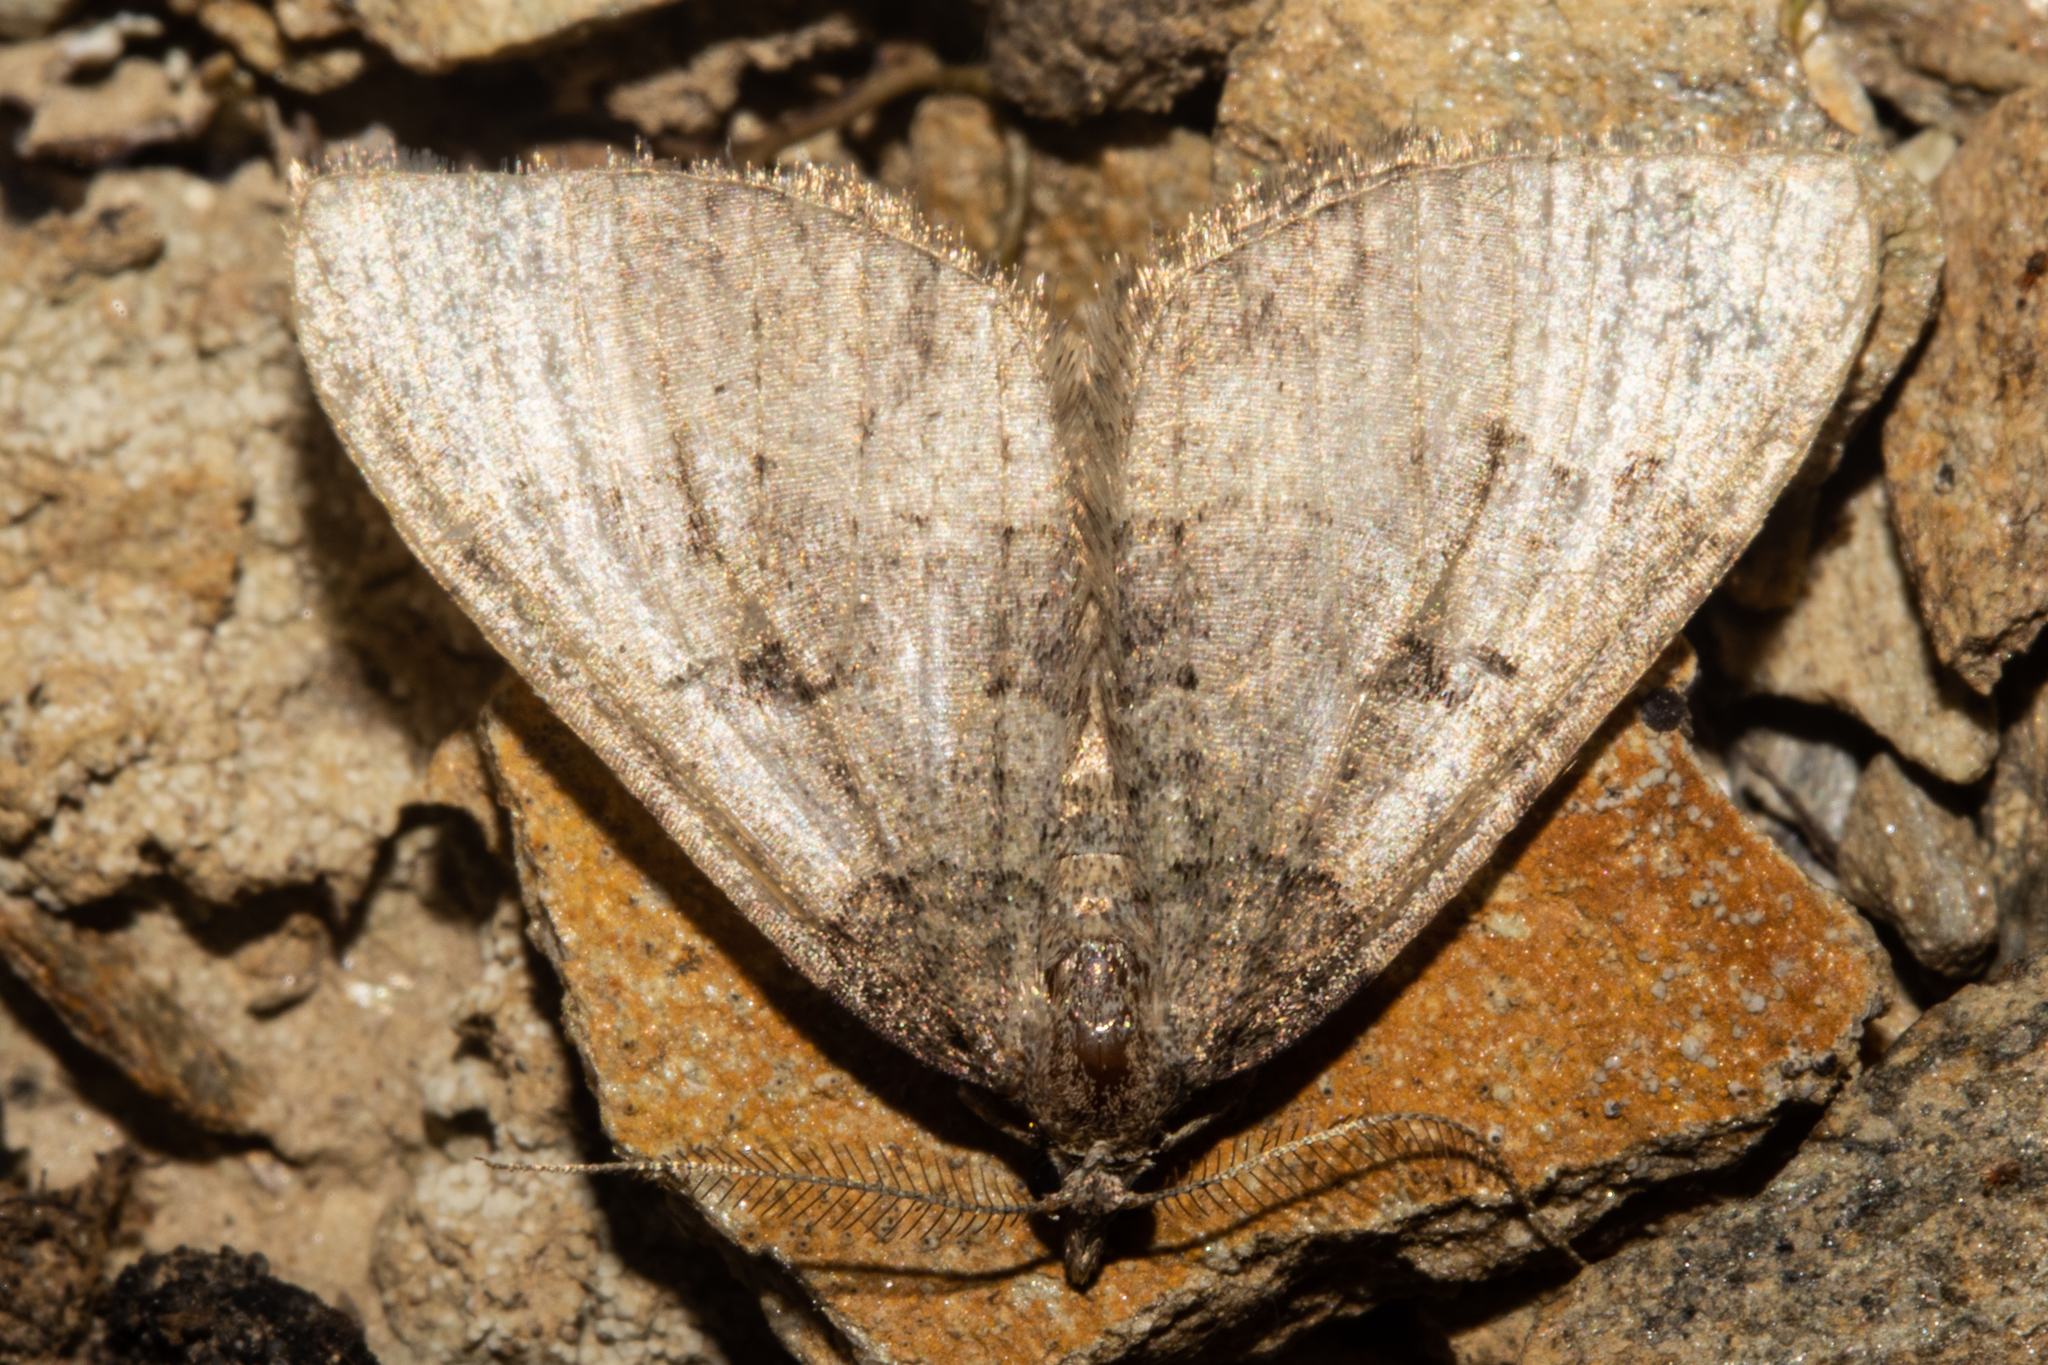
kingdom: Animalia
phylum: Arthropoda
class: Insecta
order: Lepidoptera
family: Geometridae
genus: Epyaxa
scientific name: Epyaxa rosearia
